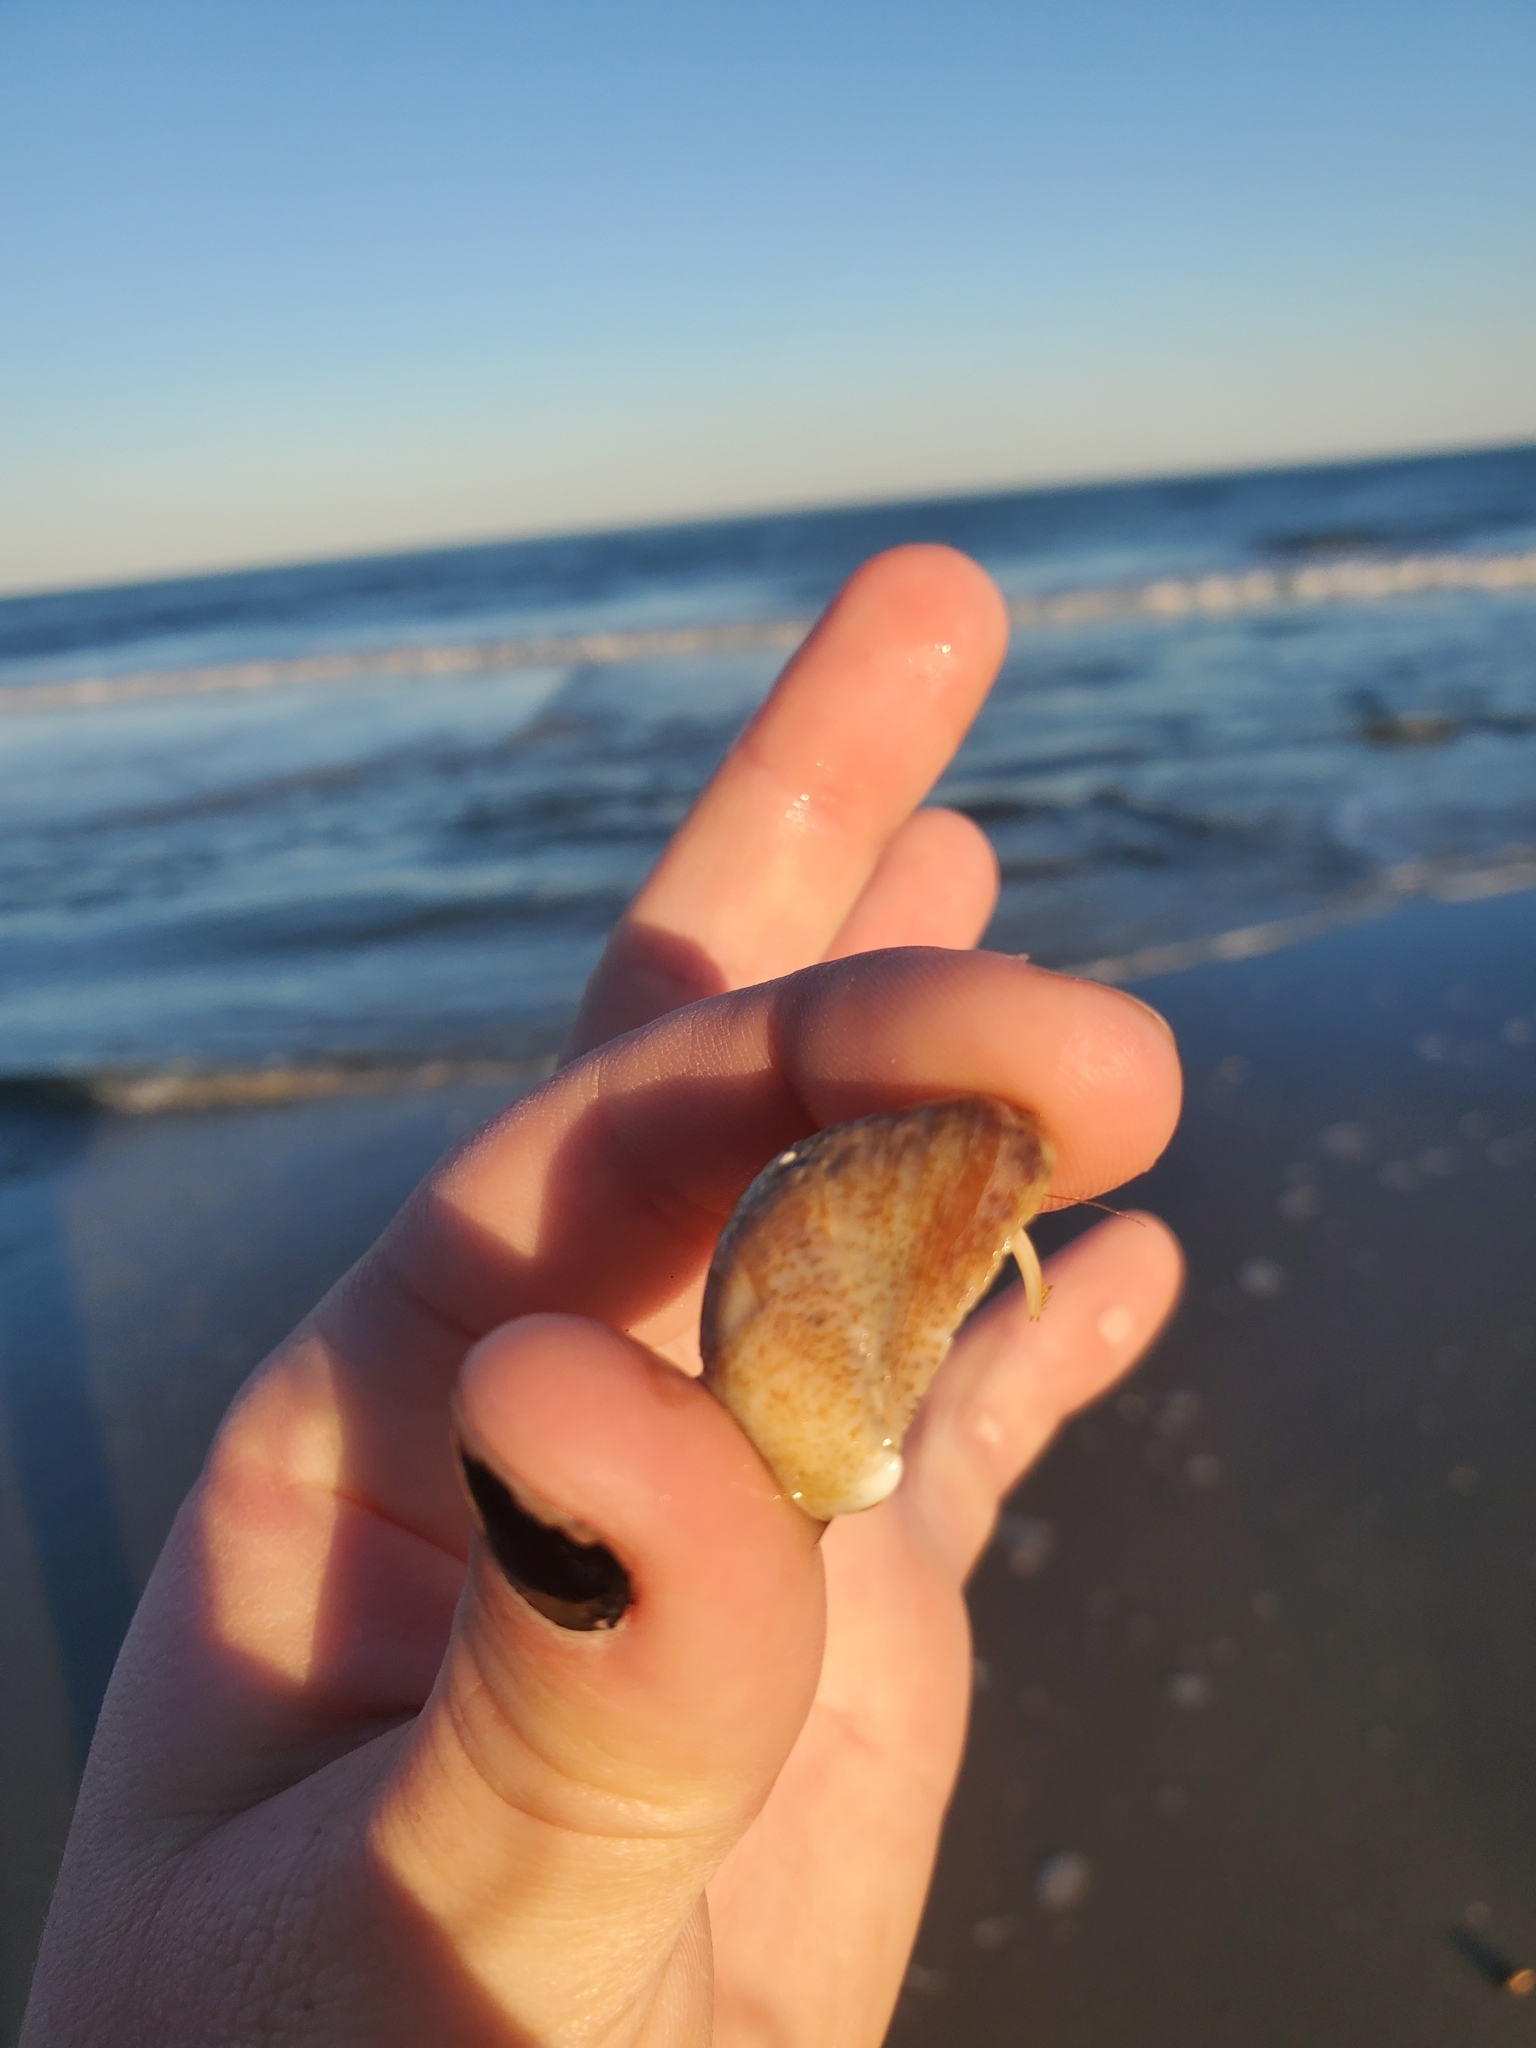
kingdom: Animalia
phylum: Arthropoda
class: Malacostraca
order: Decapoda
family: Paguridae
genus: Pagurus
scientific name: Pagurus longicarpus
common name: Long-armed hermit crab
